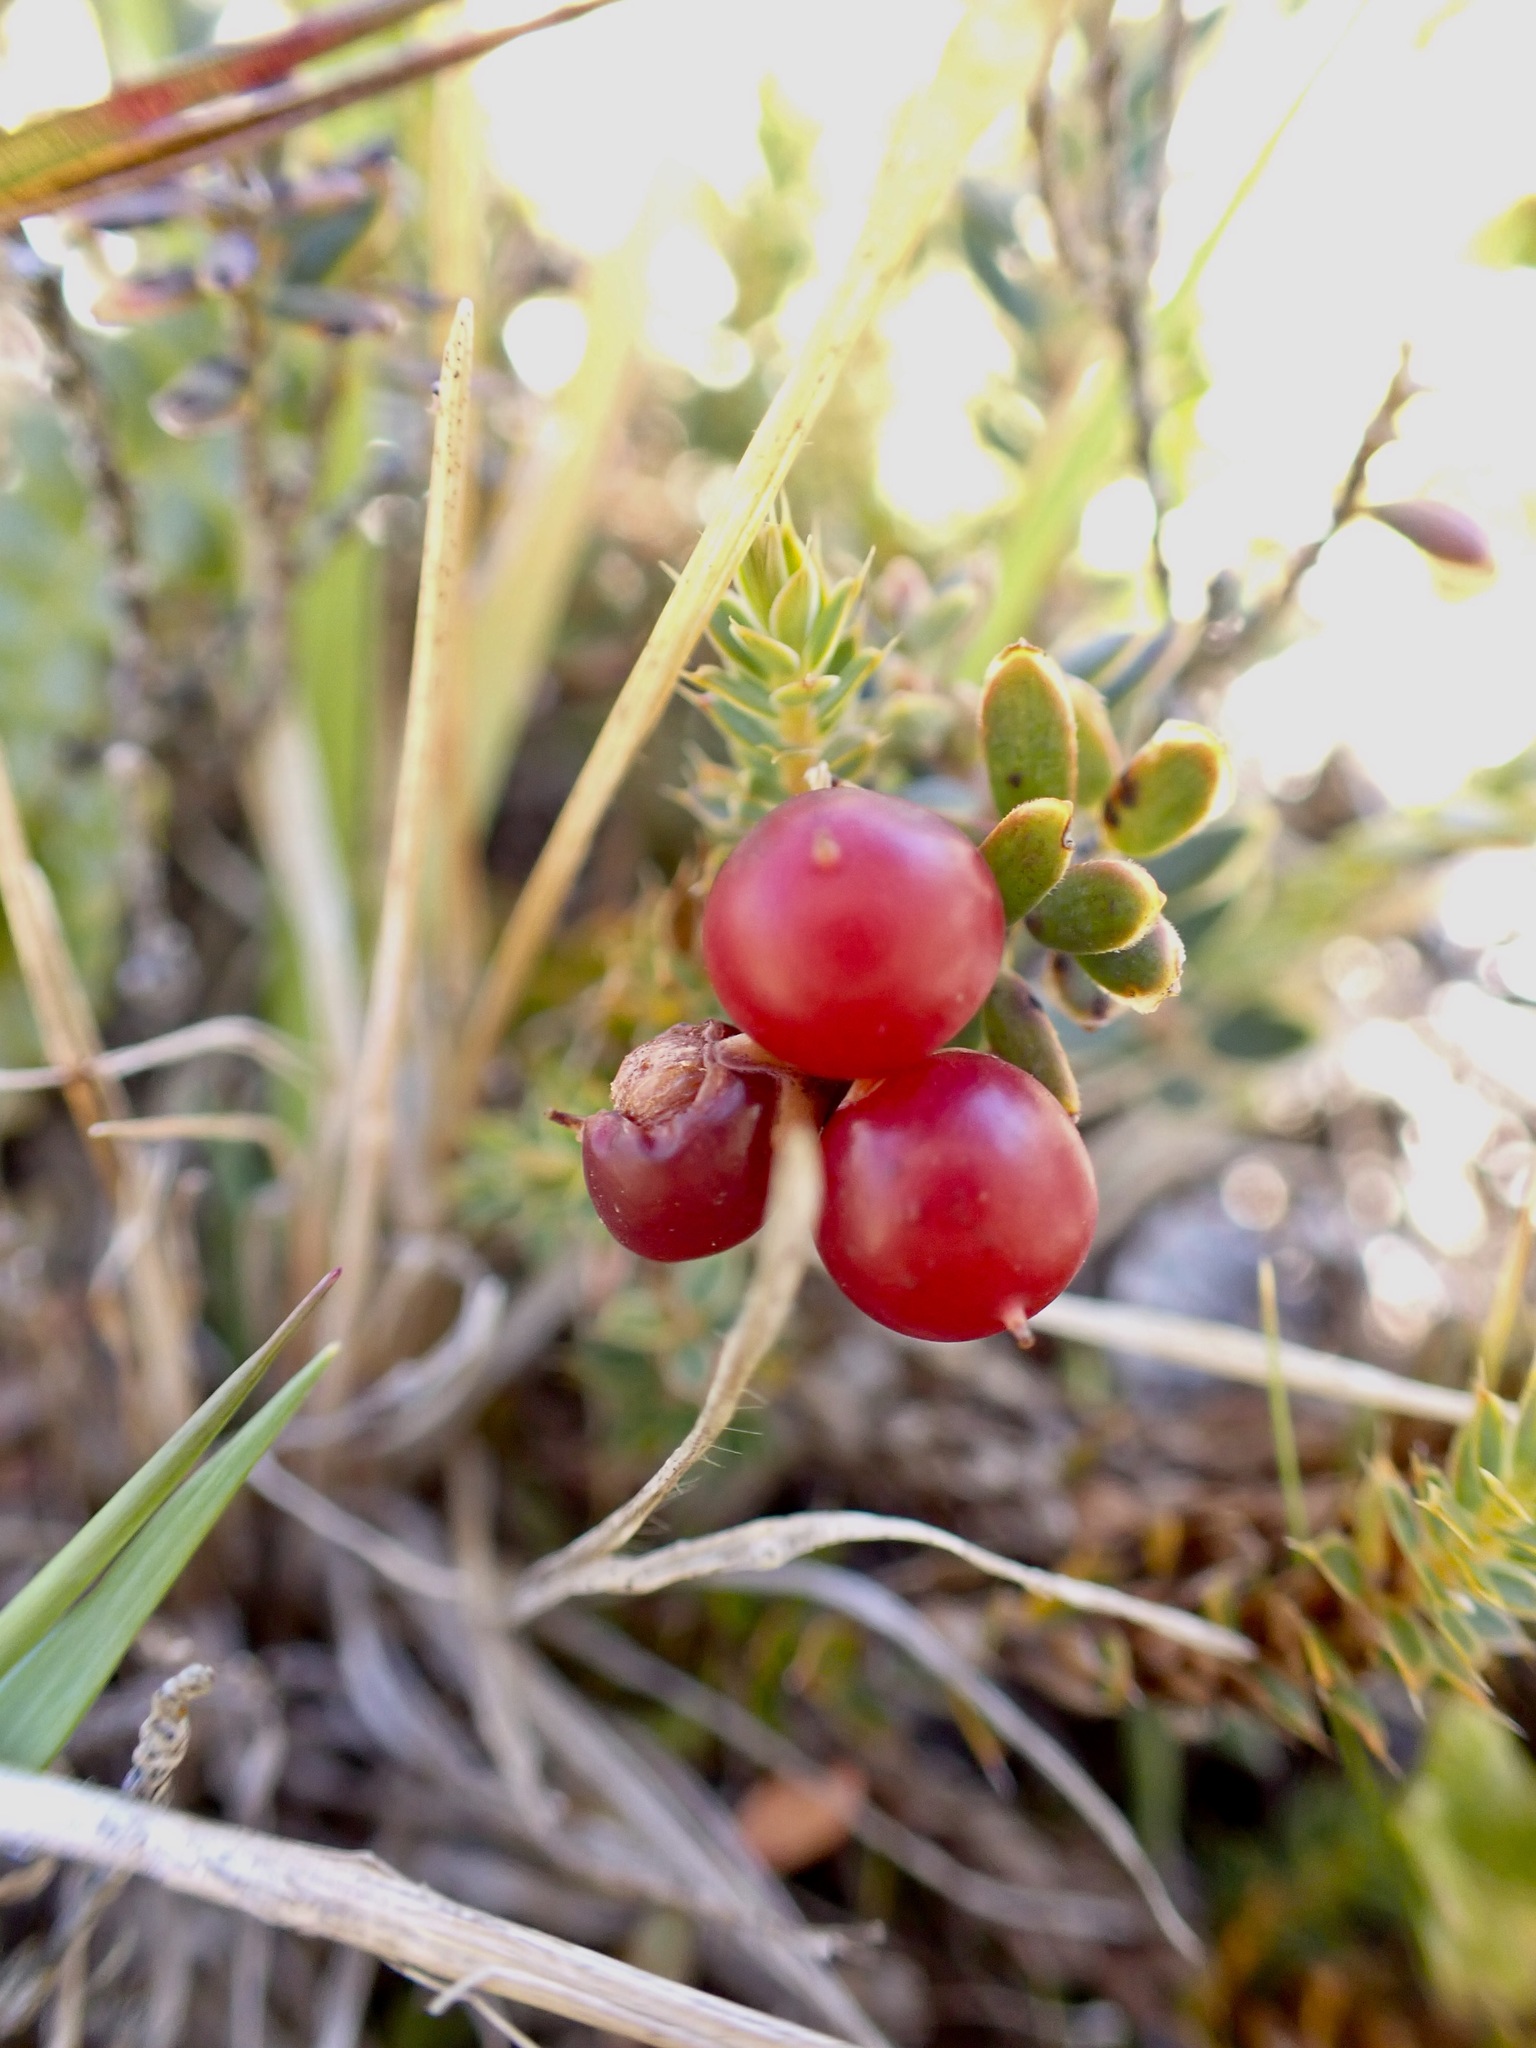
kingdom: Plantae
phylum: Tracheophyta
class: Magnoliopsida
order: Ericales
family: Ericaceae
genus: Acrothamnus
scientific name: Acrothamnus colensoi
